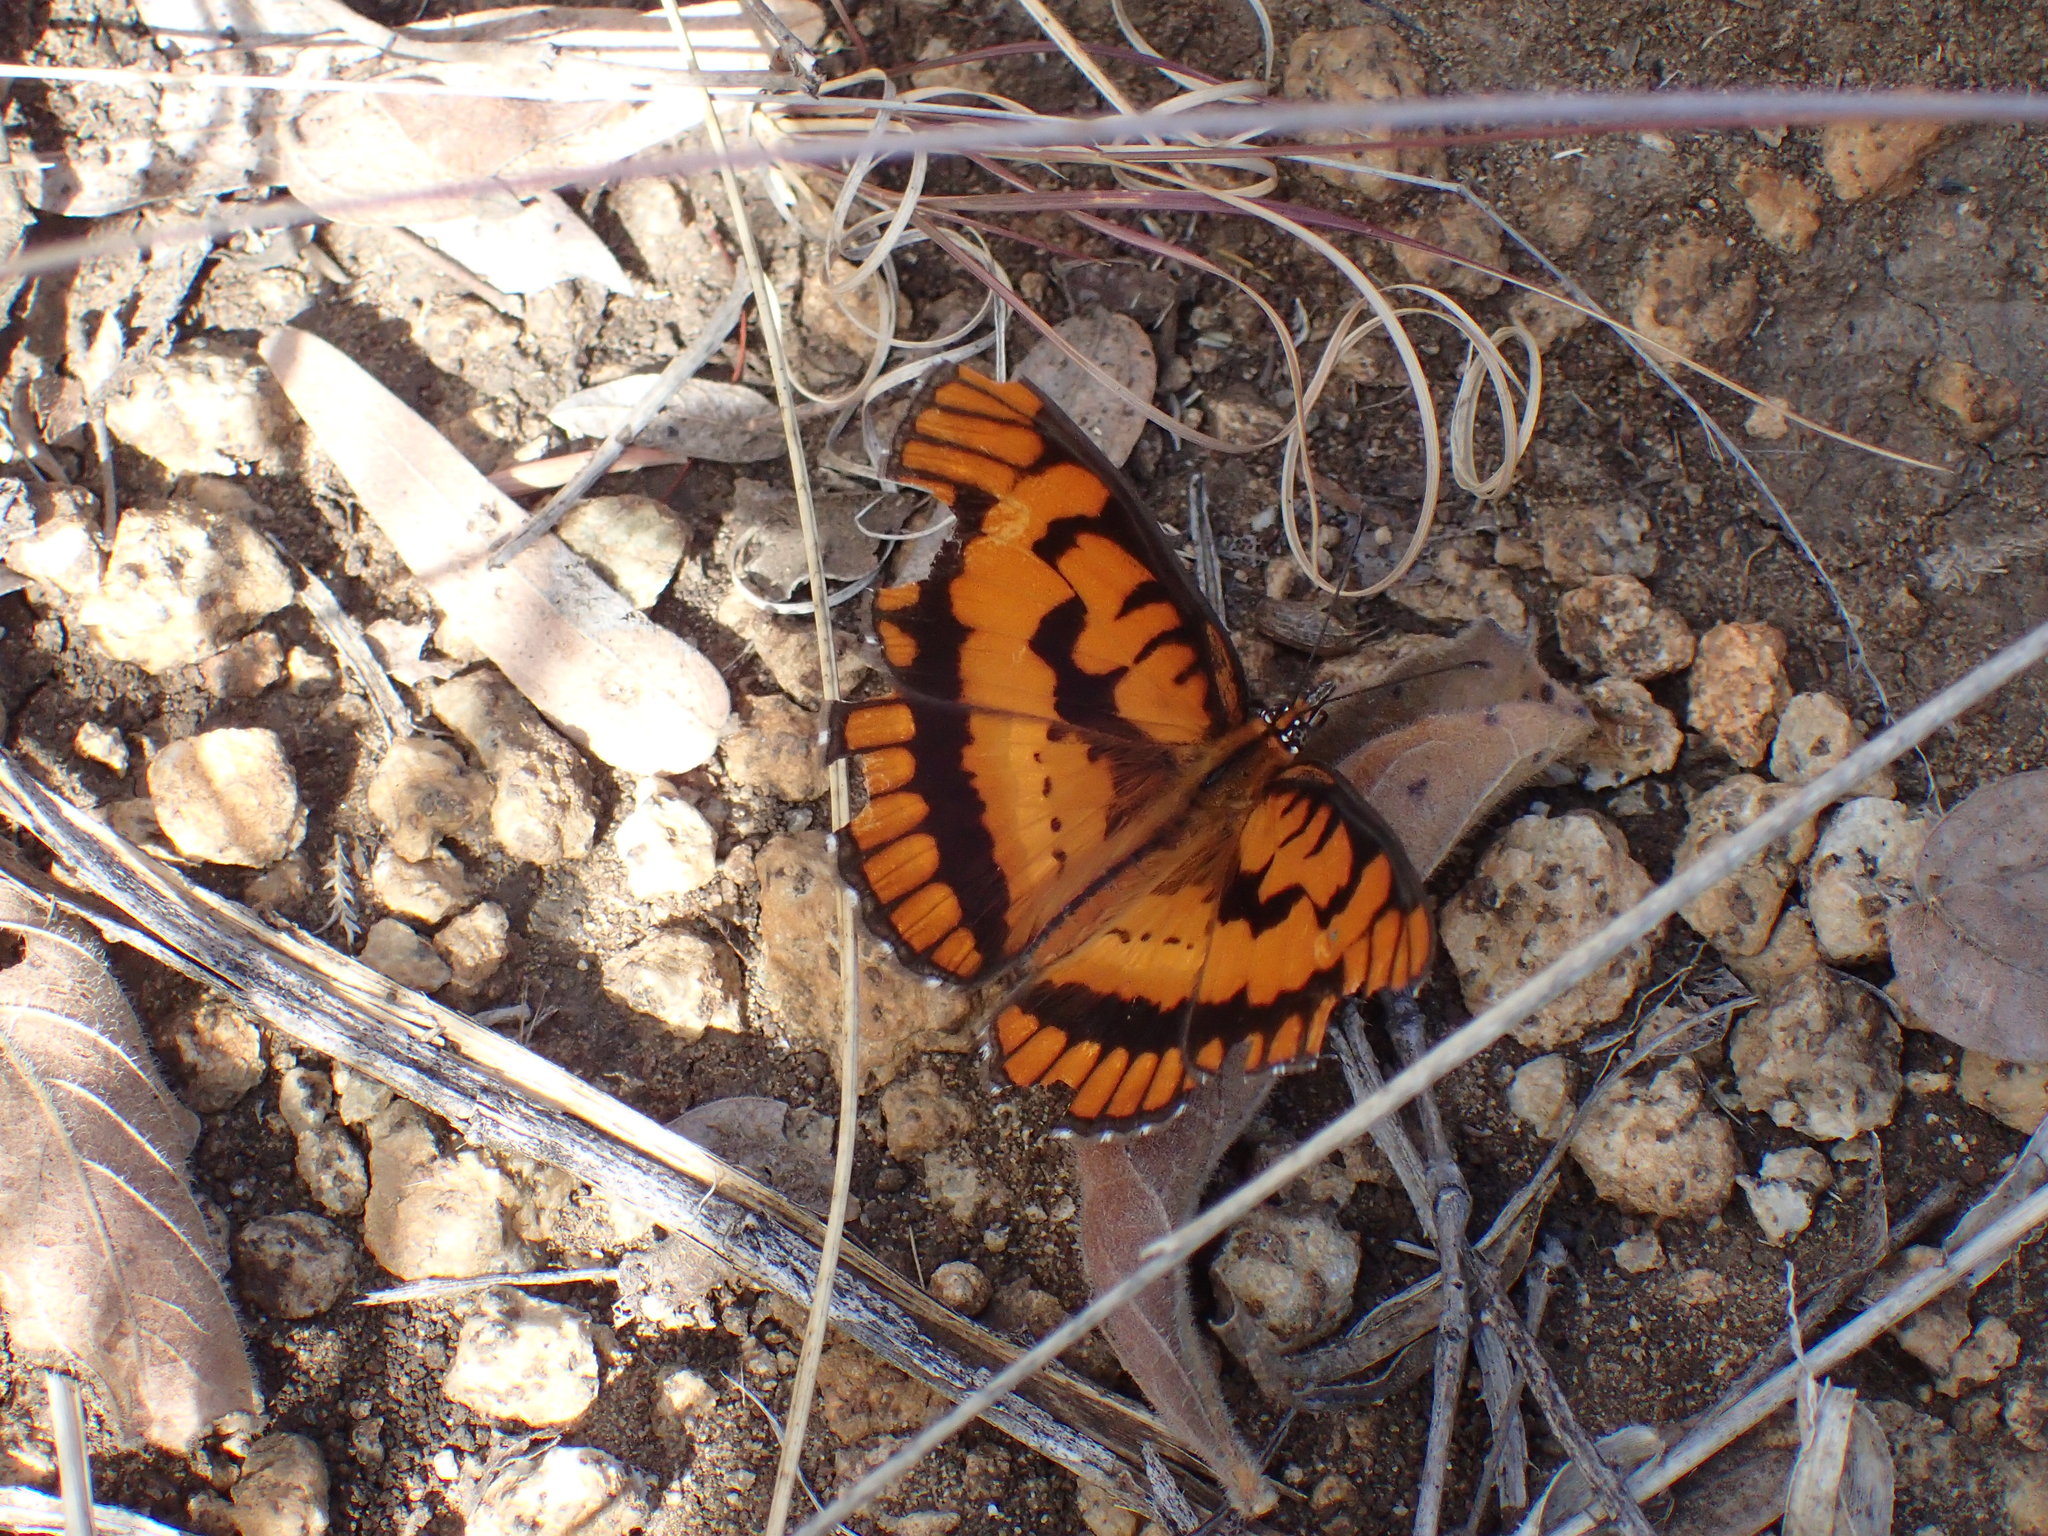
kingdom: Animalia
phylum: Arthropoda
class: Insecta
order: Lepidoptera
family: Nymphalidae
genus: Byblia
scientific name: Byblia ilithyia
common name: Spotted joker
